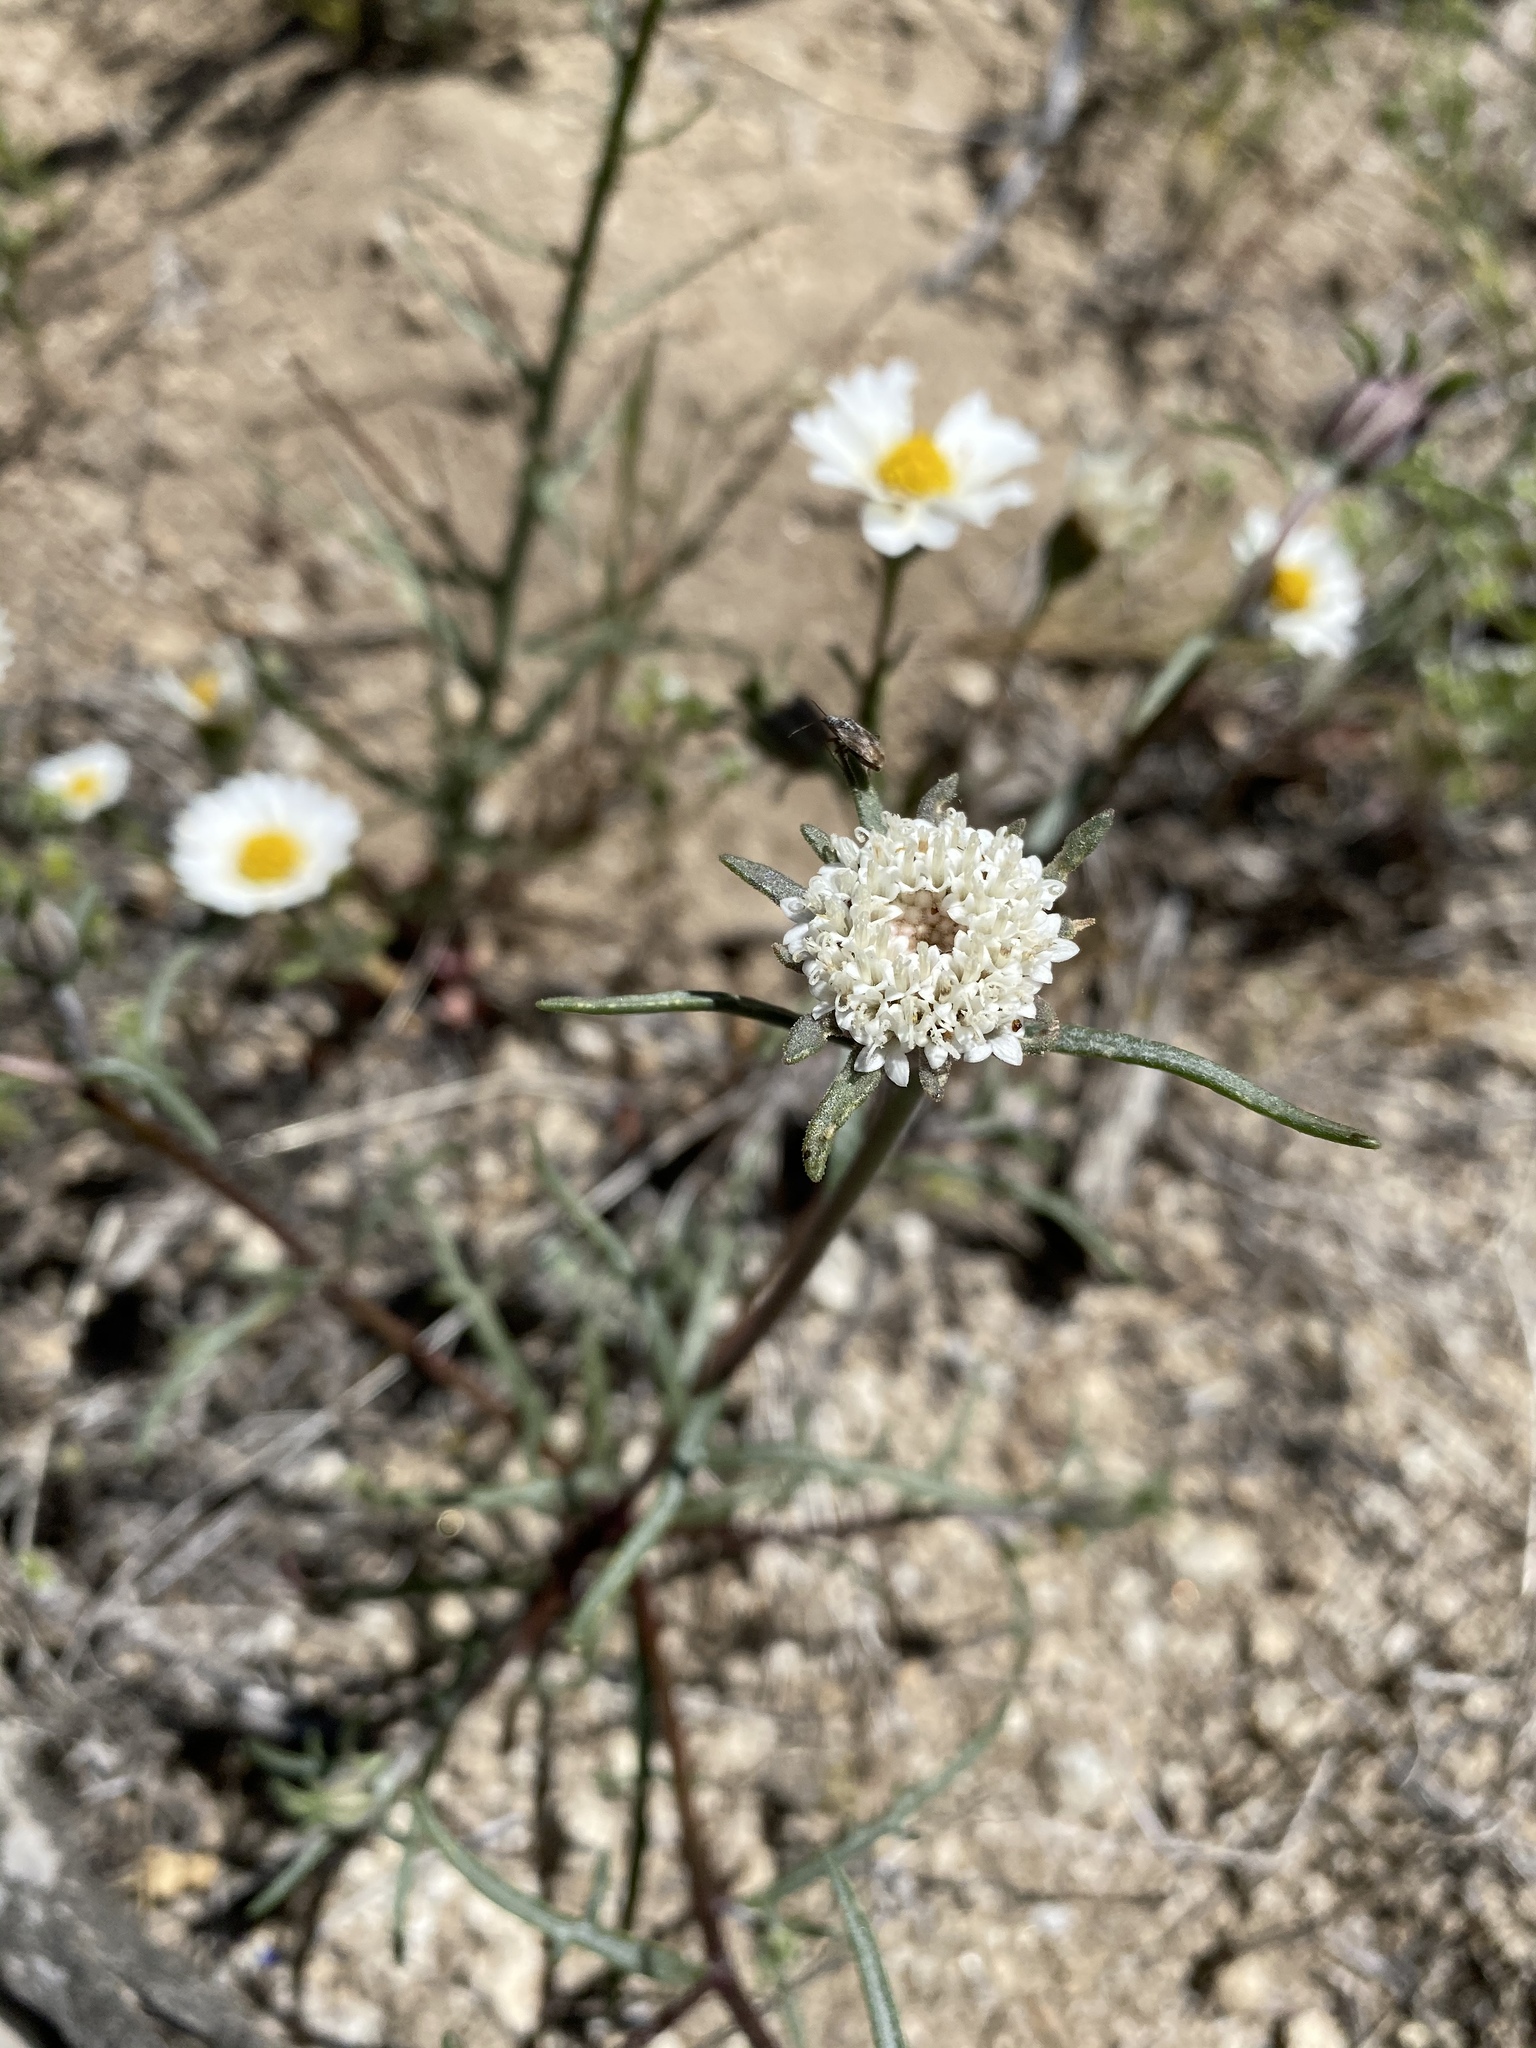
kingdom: Plantae
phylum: Tracheophyta
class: Magnoliopsida
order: Asterales
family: Asteraceae
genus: Chaenactis
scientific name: Chaenactis xantiana
